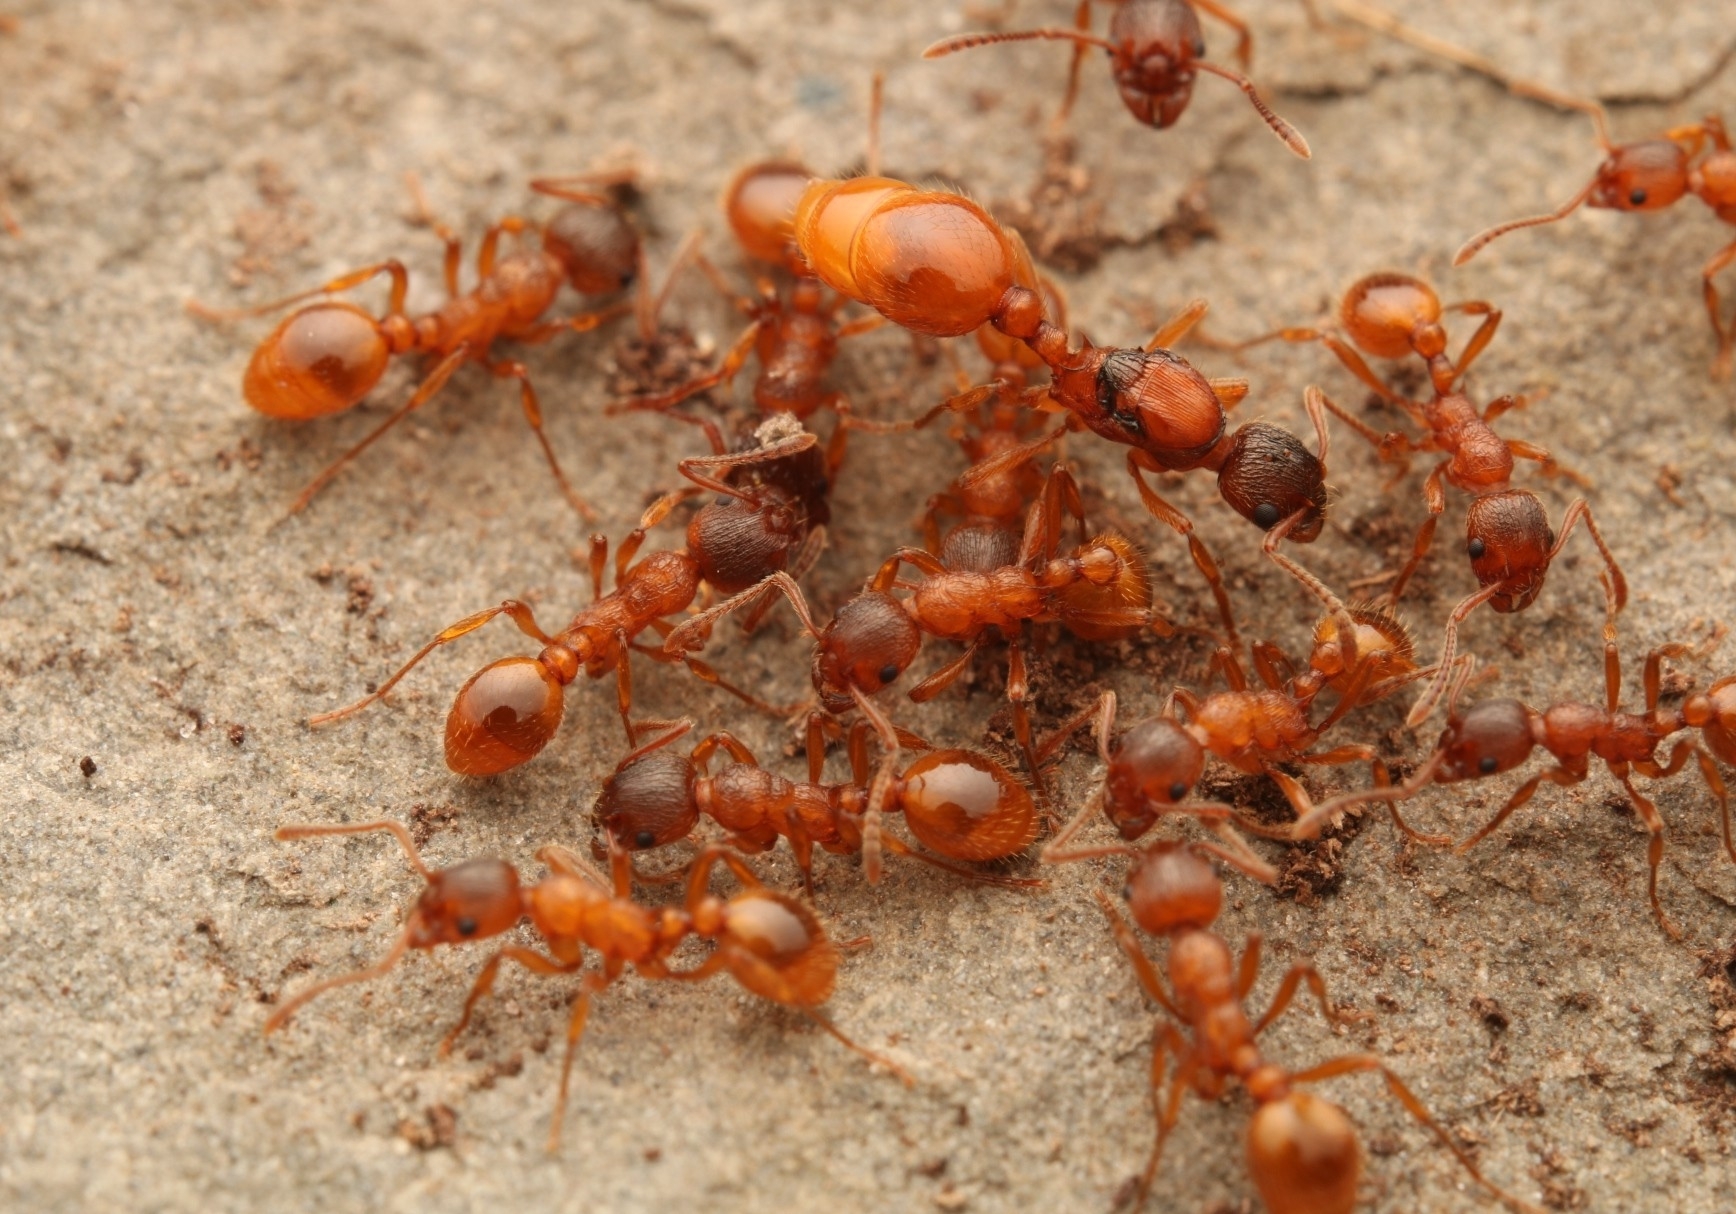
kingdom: Animalia
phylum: Arthropoda
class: Insecta
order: Hymenoptera
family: Formicidae
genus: Myrmica
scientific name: Myrmica rubra
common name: European fire ant
